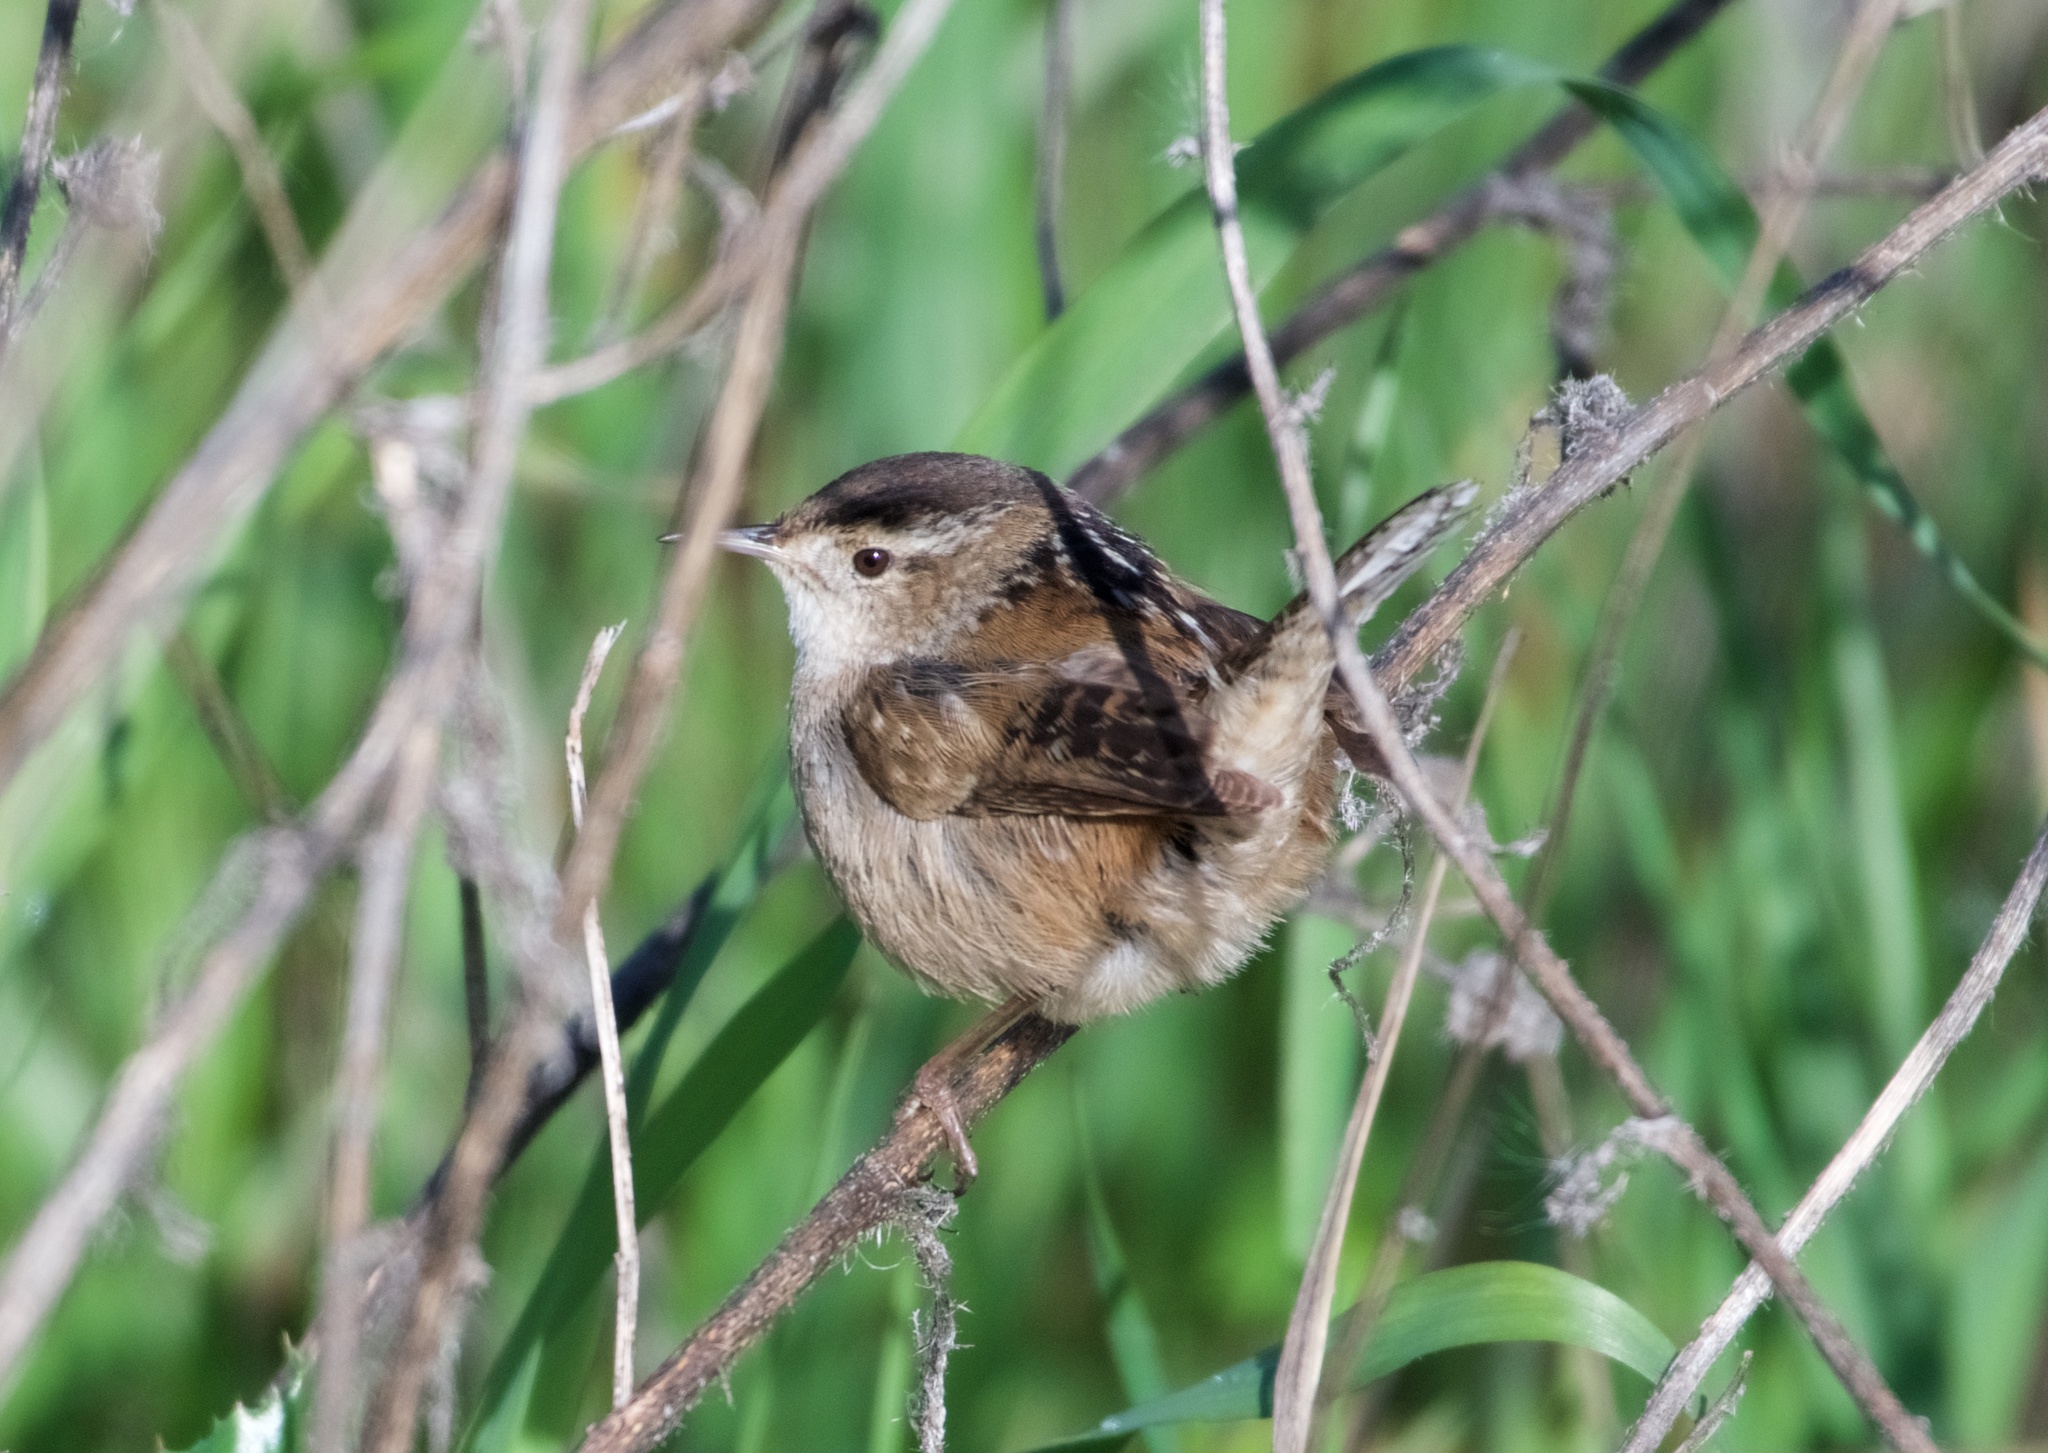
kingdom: Animalia
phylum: Chordata
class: Aves
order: Passeriformes
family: Troglodytidae
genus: Cistothorus
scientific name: Cistothorus palustris
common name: Marsh wren
